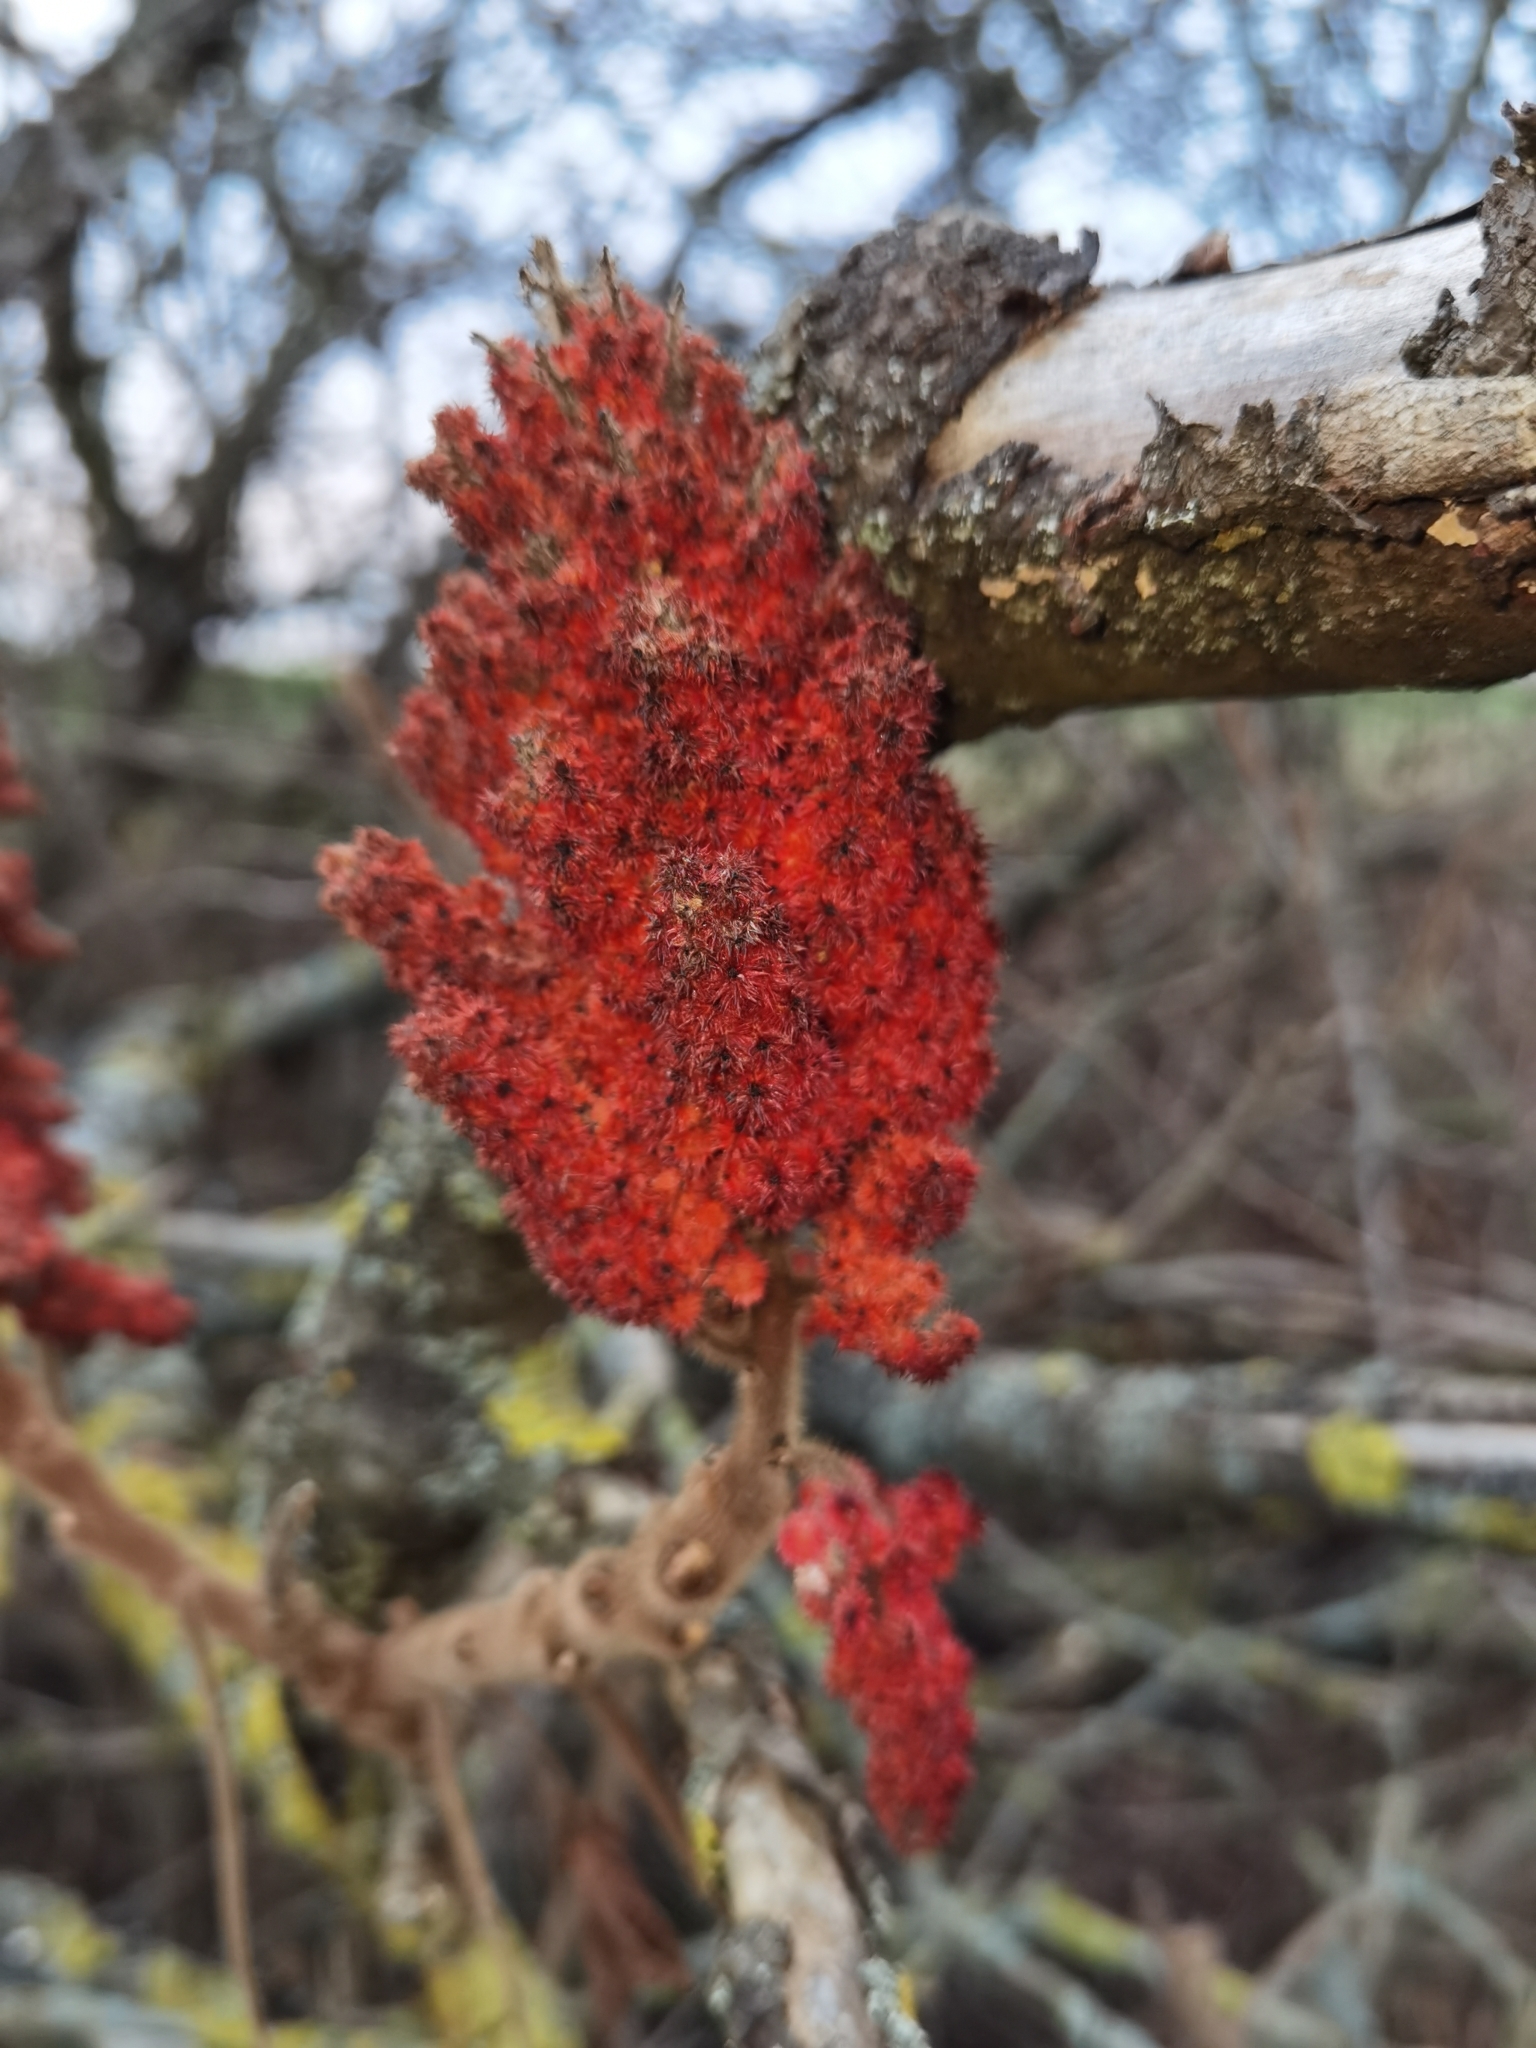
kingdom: Plantae
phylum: Tracheophyta
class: Magnoliopsida
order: Sapindales
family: Anacardiaceae
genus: Rhus
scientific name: Rhus typhina
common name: Staghorn sumac
